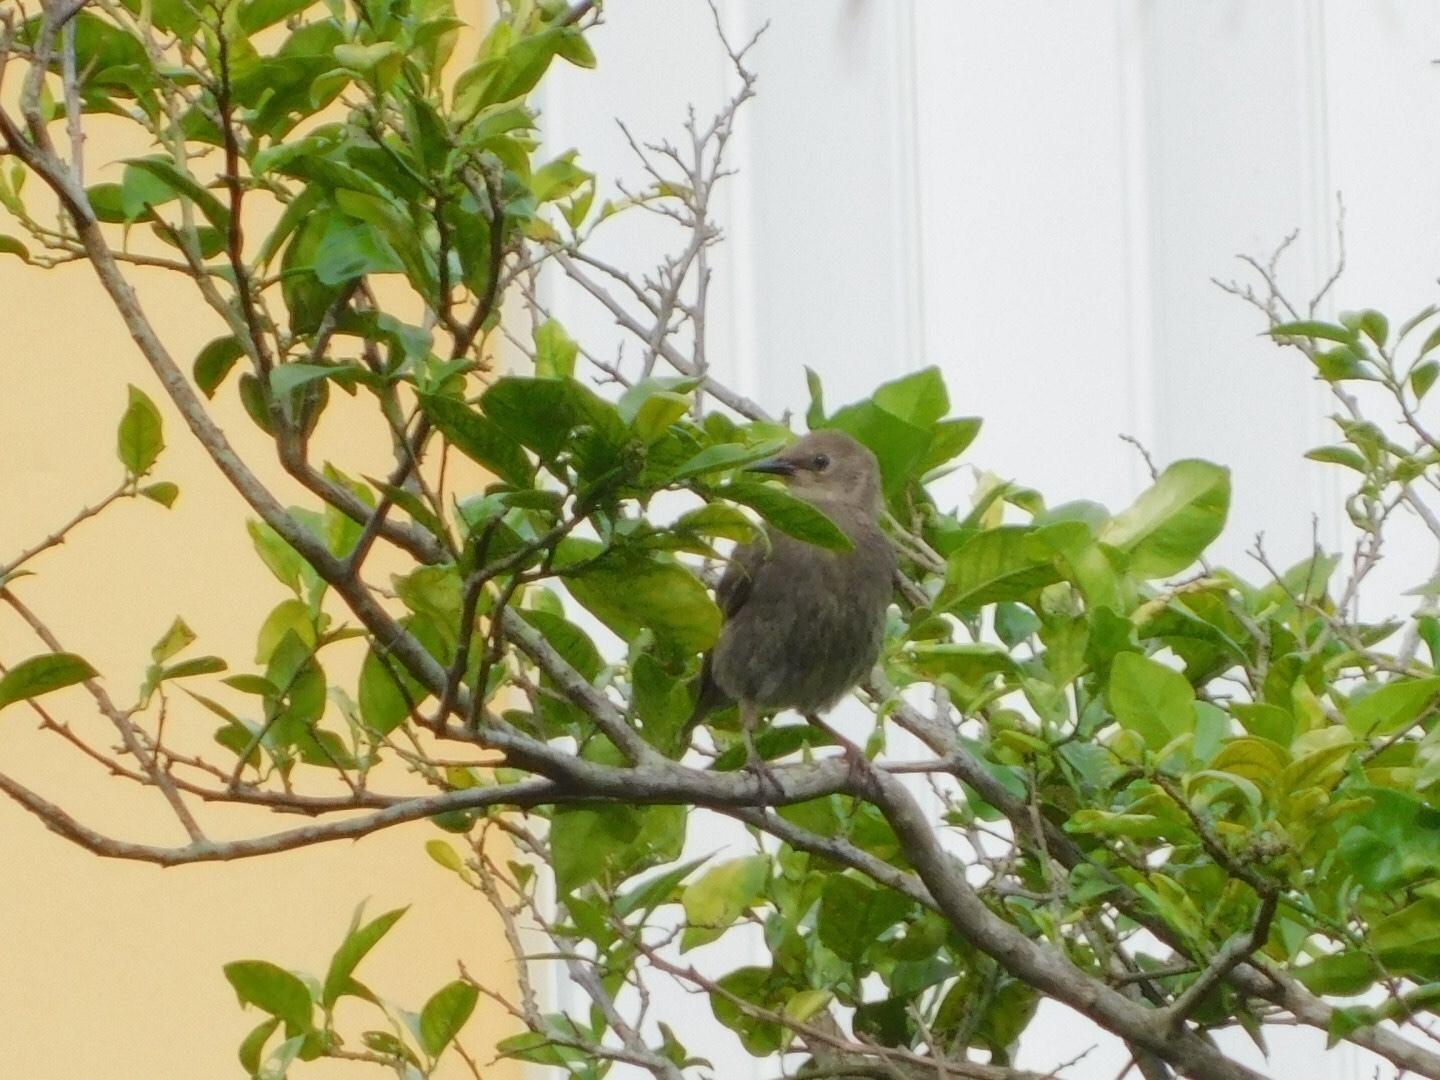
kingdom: Animalia
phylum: Chordata
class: Aves
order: Passeriformes
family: Sturnidae
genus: Sturnus
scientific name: Sturnus vulgaris
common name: Common starling
